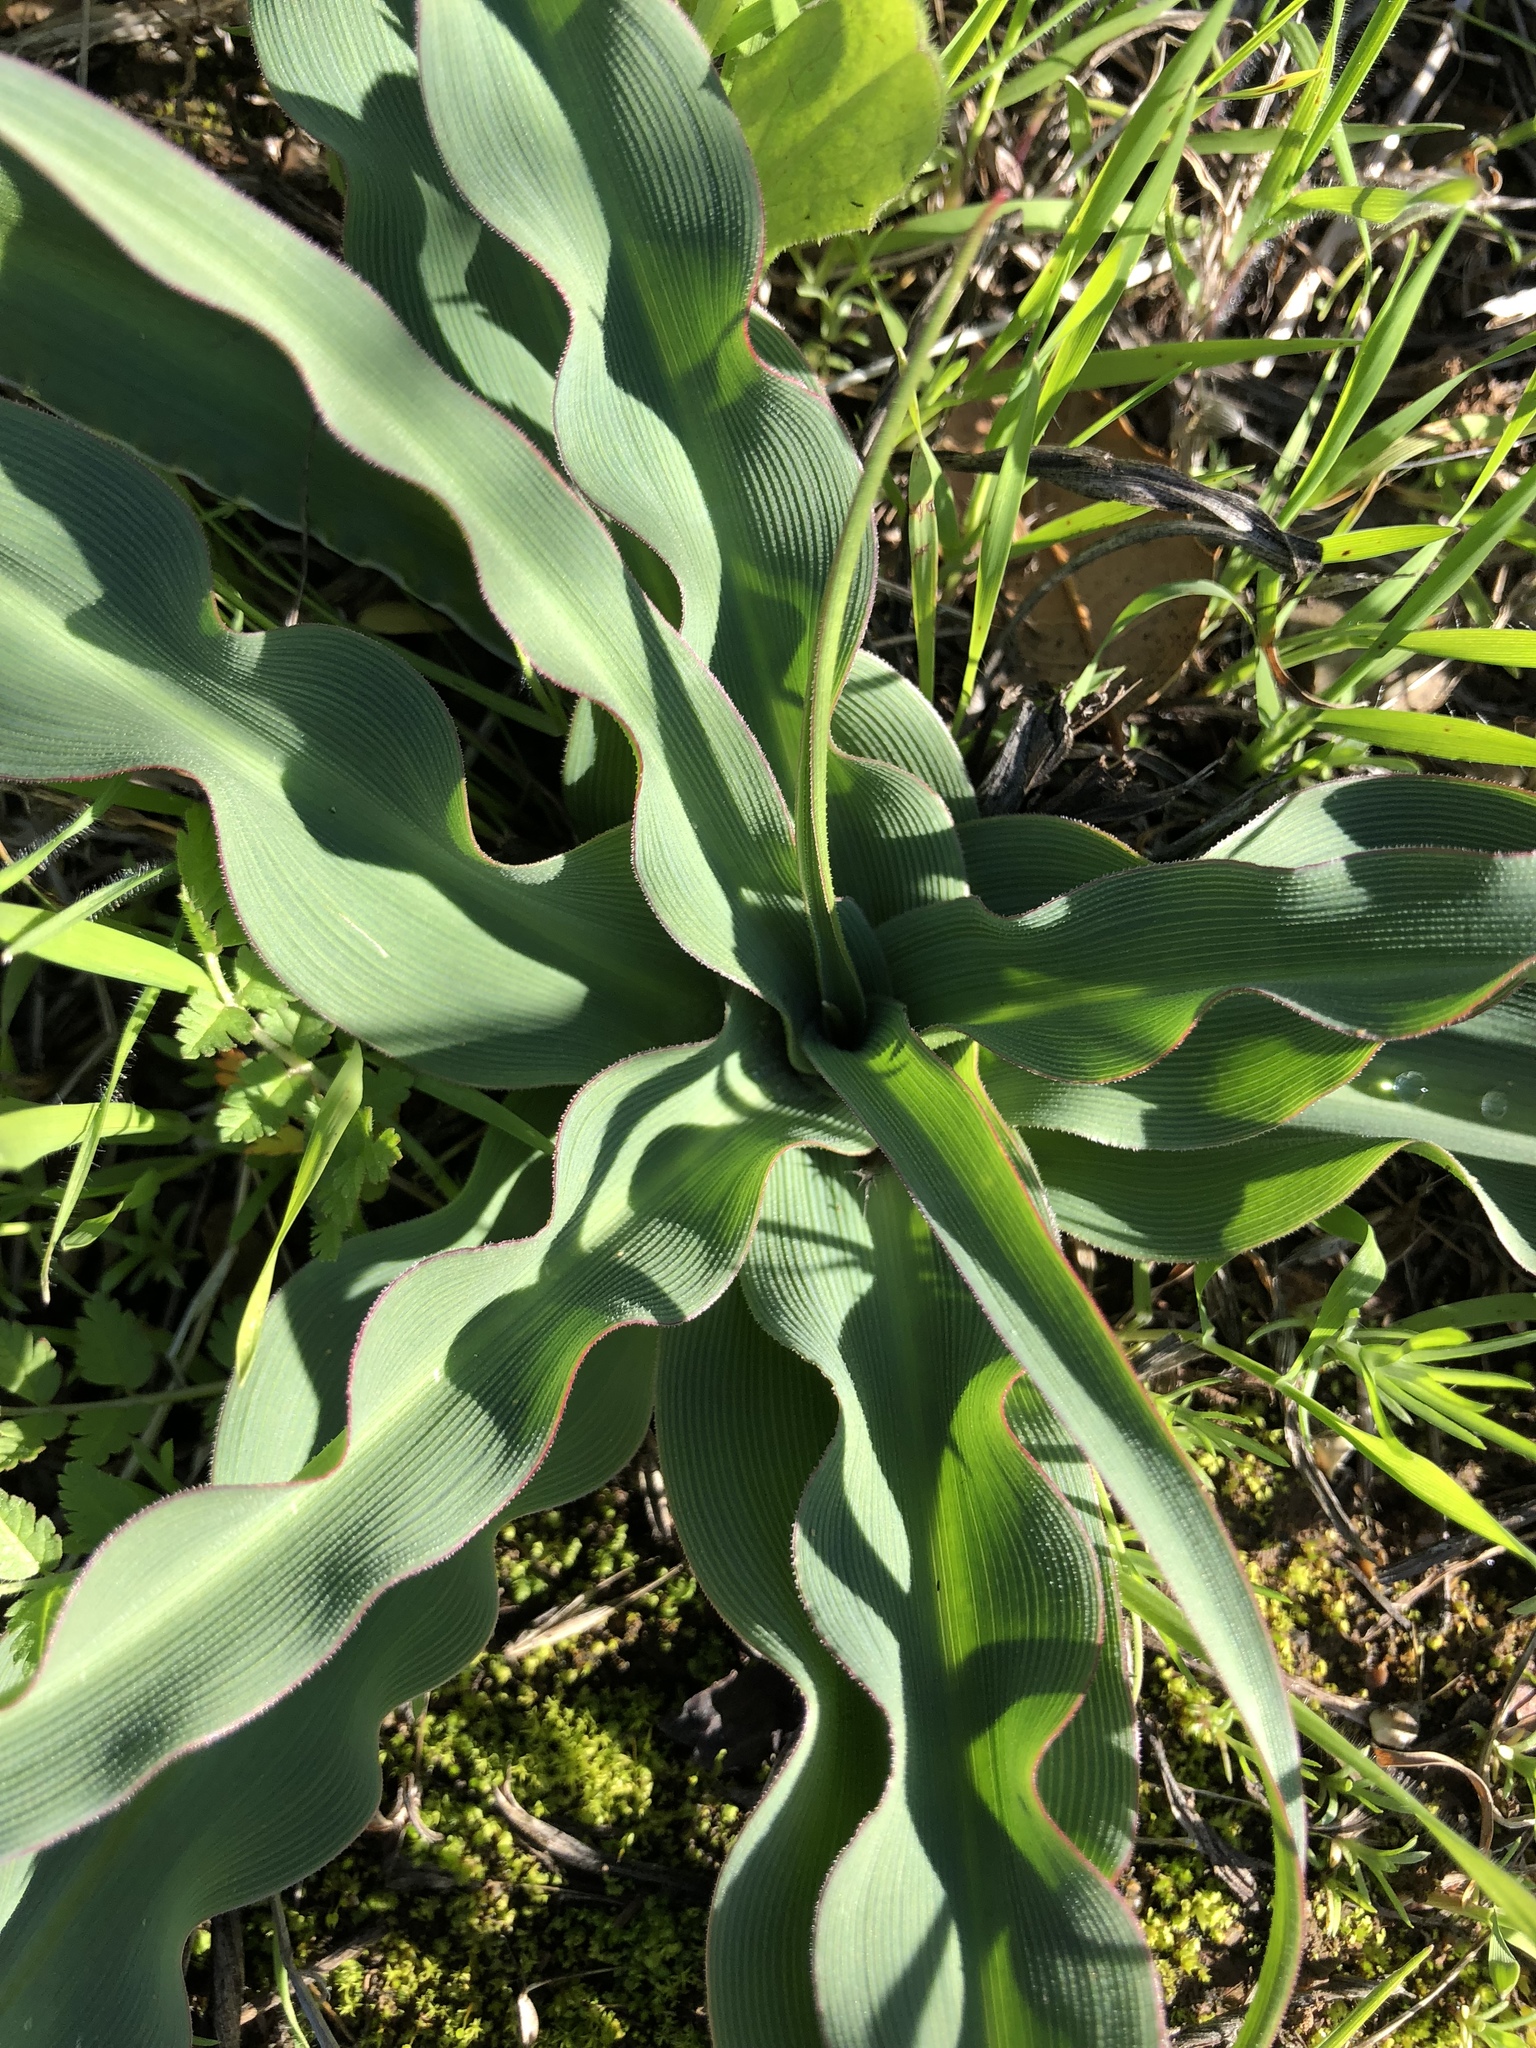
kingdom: Plantae
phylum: Tracheophyta
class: Liliopsida
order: Asparagales
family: Asparagaceae
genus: Chlorogalum
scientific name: Chlorogalum pomeridianum
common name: Amole
